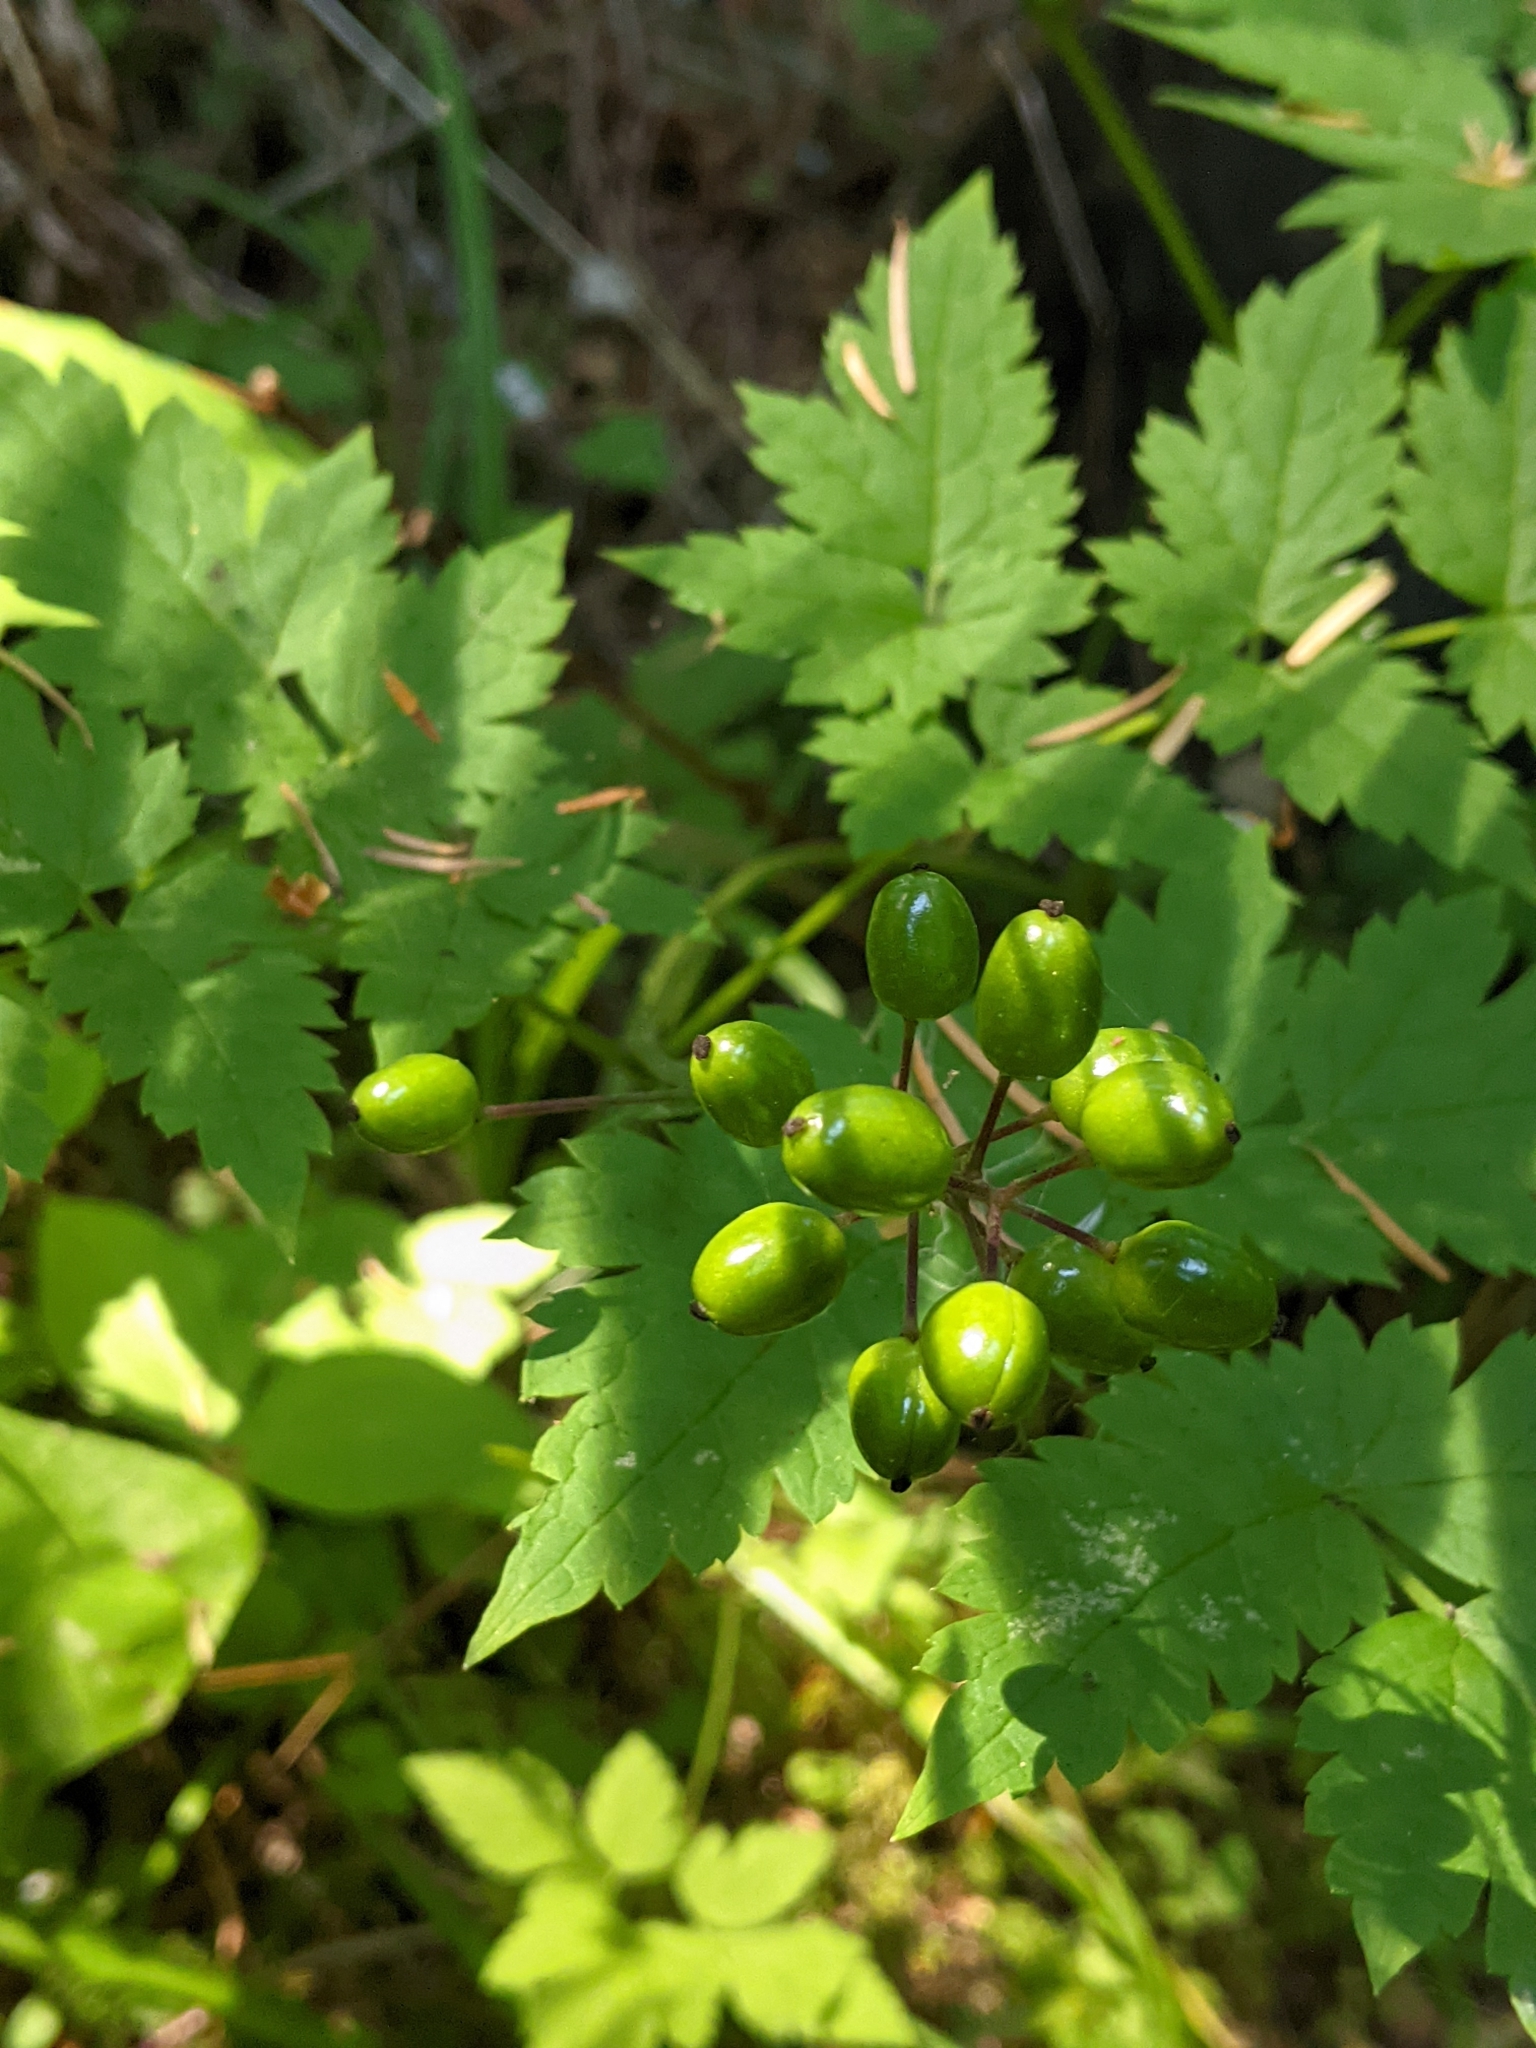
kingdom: Plantae
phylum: Tracheophyta
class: Magnoliopsida
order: Ranunculales
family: Ranunculaceae
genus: Actaea
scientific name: Actaea rubra
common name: Red baneberry
